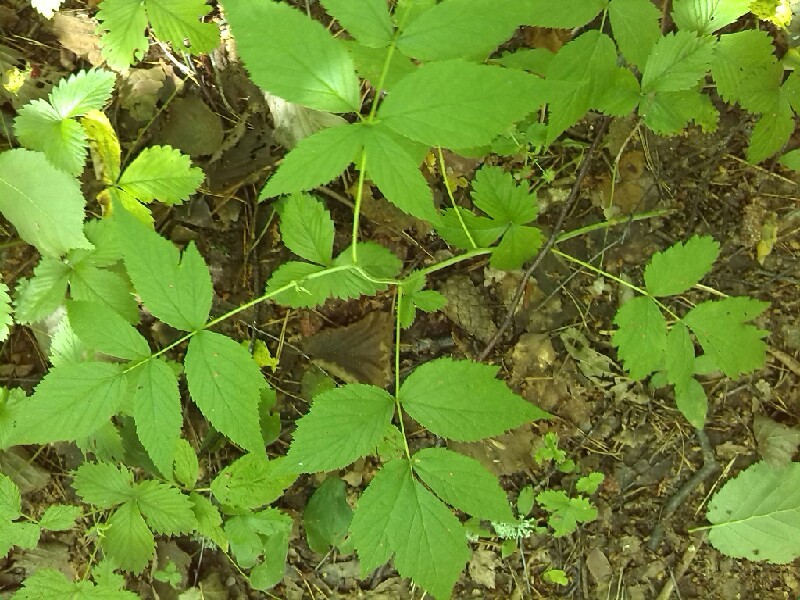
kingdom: Plantae
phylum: Tracheophyta
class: Magnoliopsida
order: Ranunculales
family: Ranunculaceae
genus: Actaea
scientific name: Actaea spicata
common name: Baneberry
